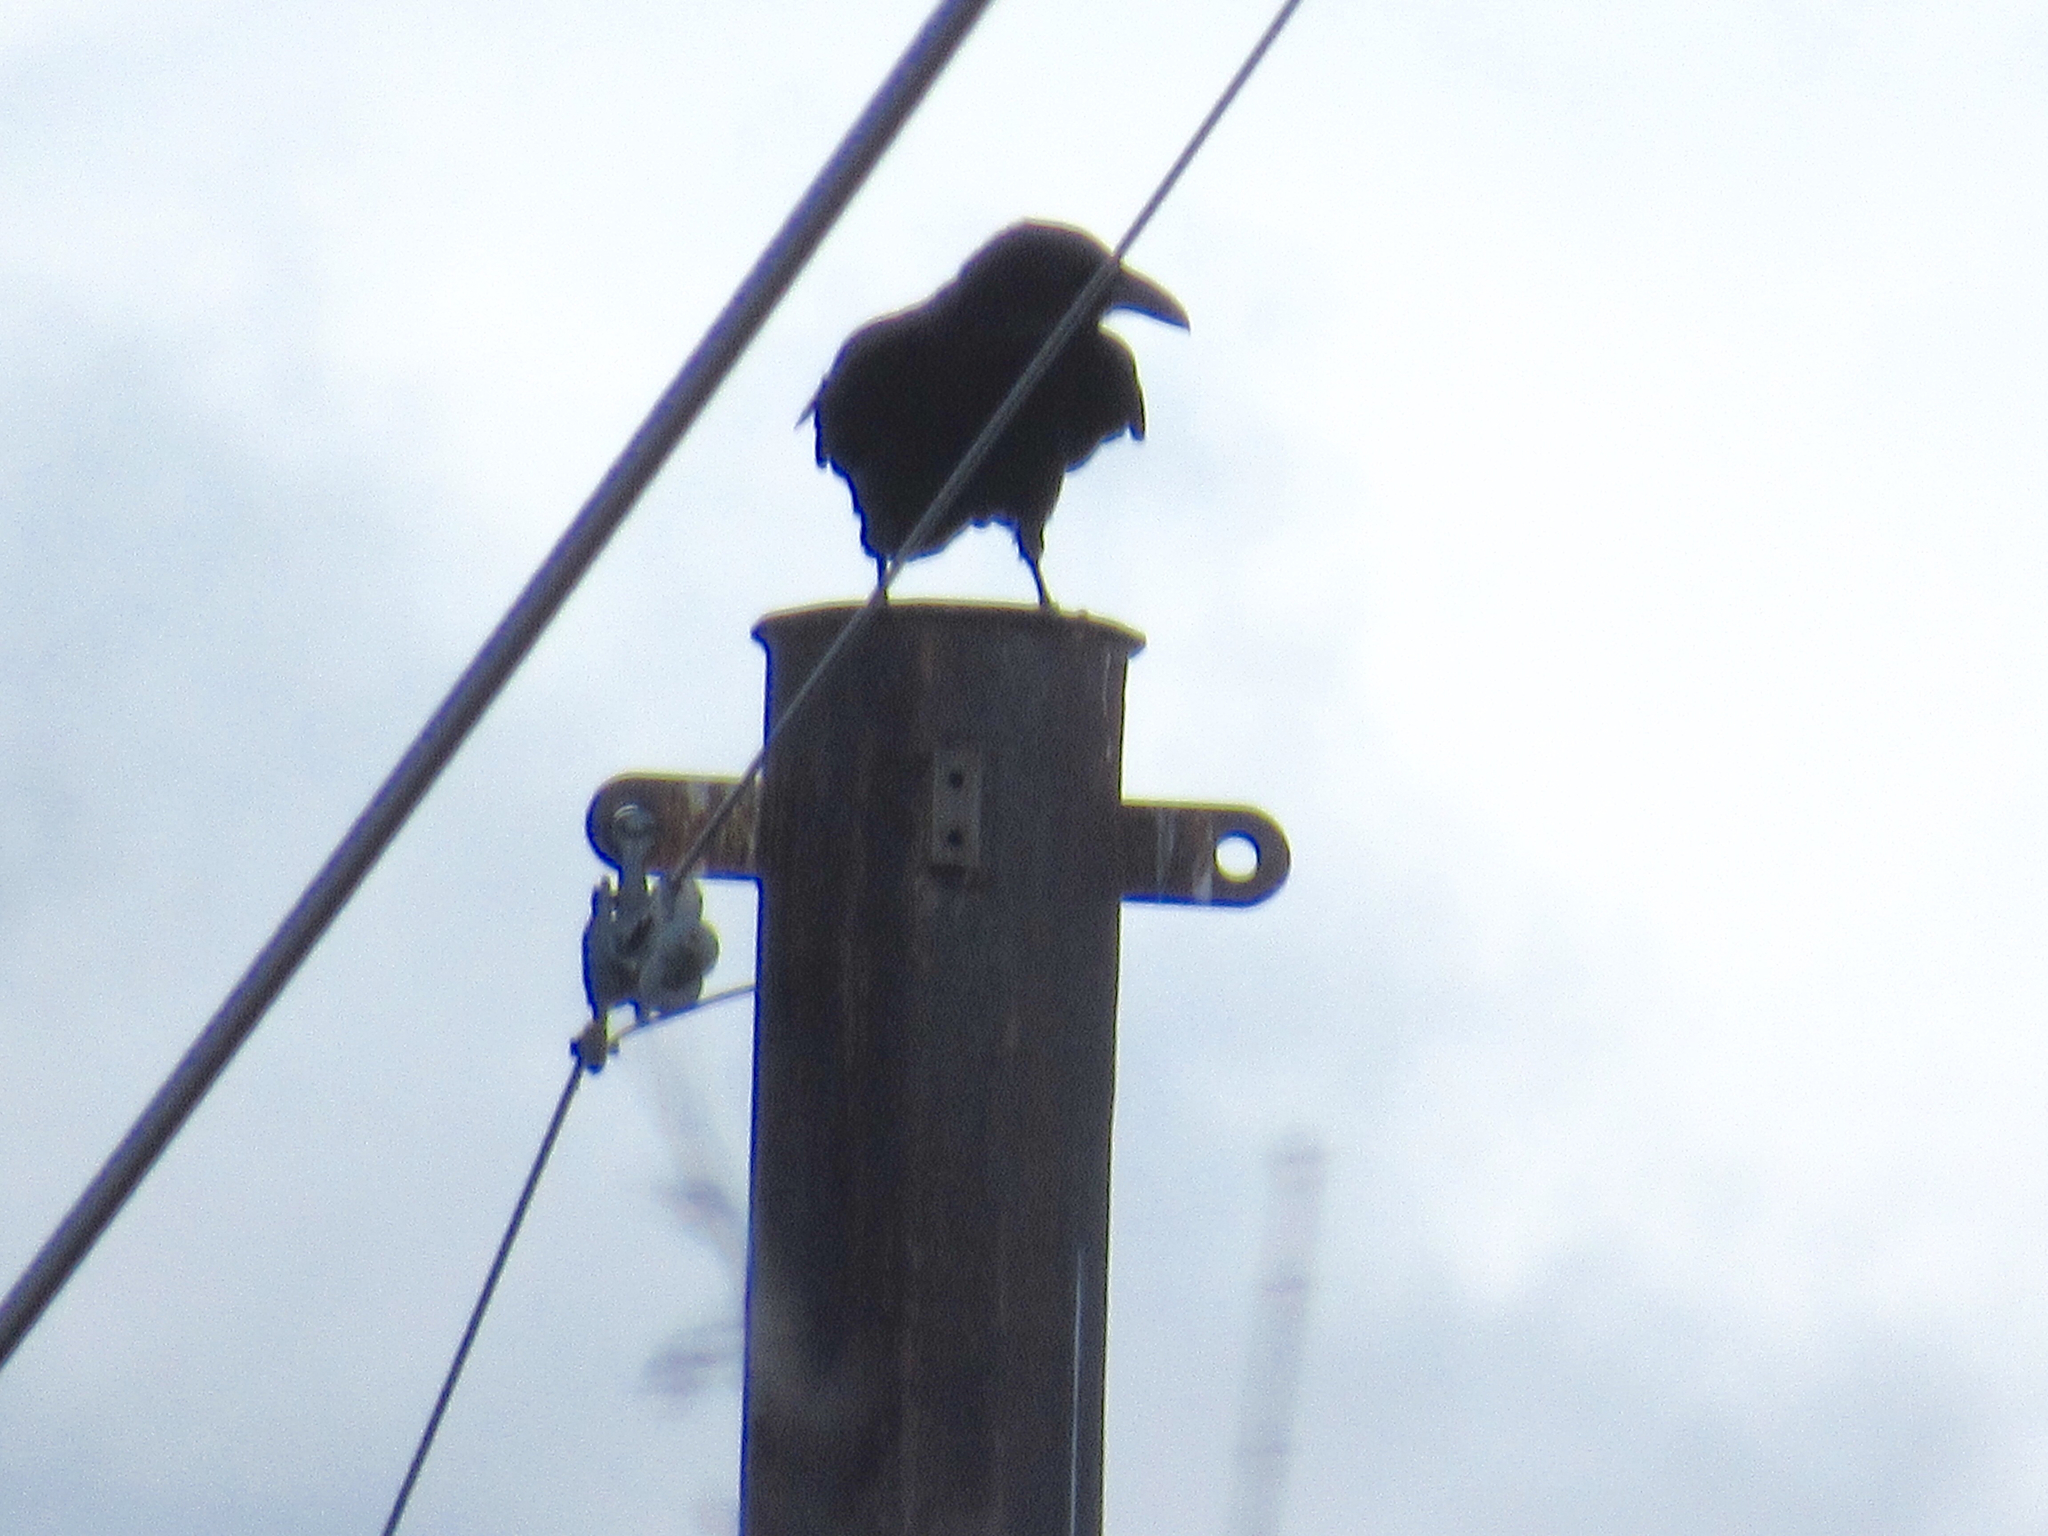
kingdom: Animalia
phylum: Chordata
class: Aves
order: Passeriformes
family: Corvidae
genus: Corvus
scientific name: Corvus corax
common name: Common raven
